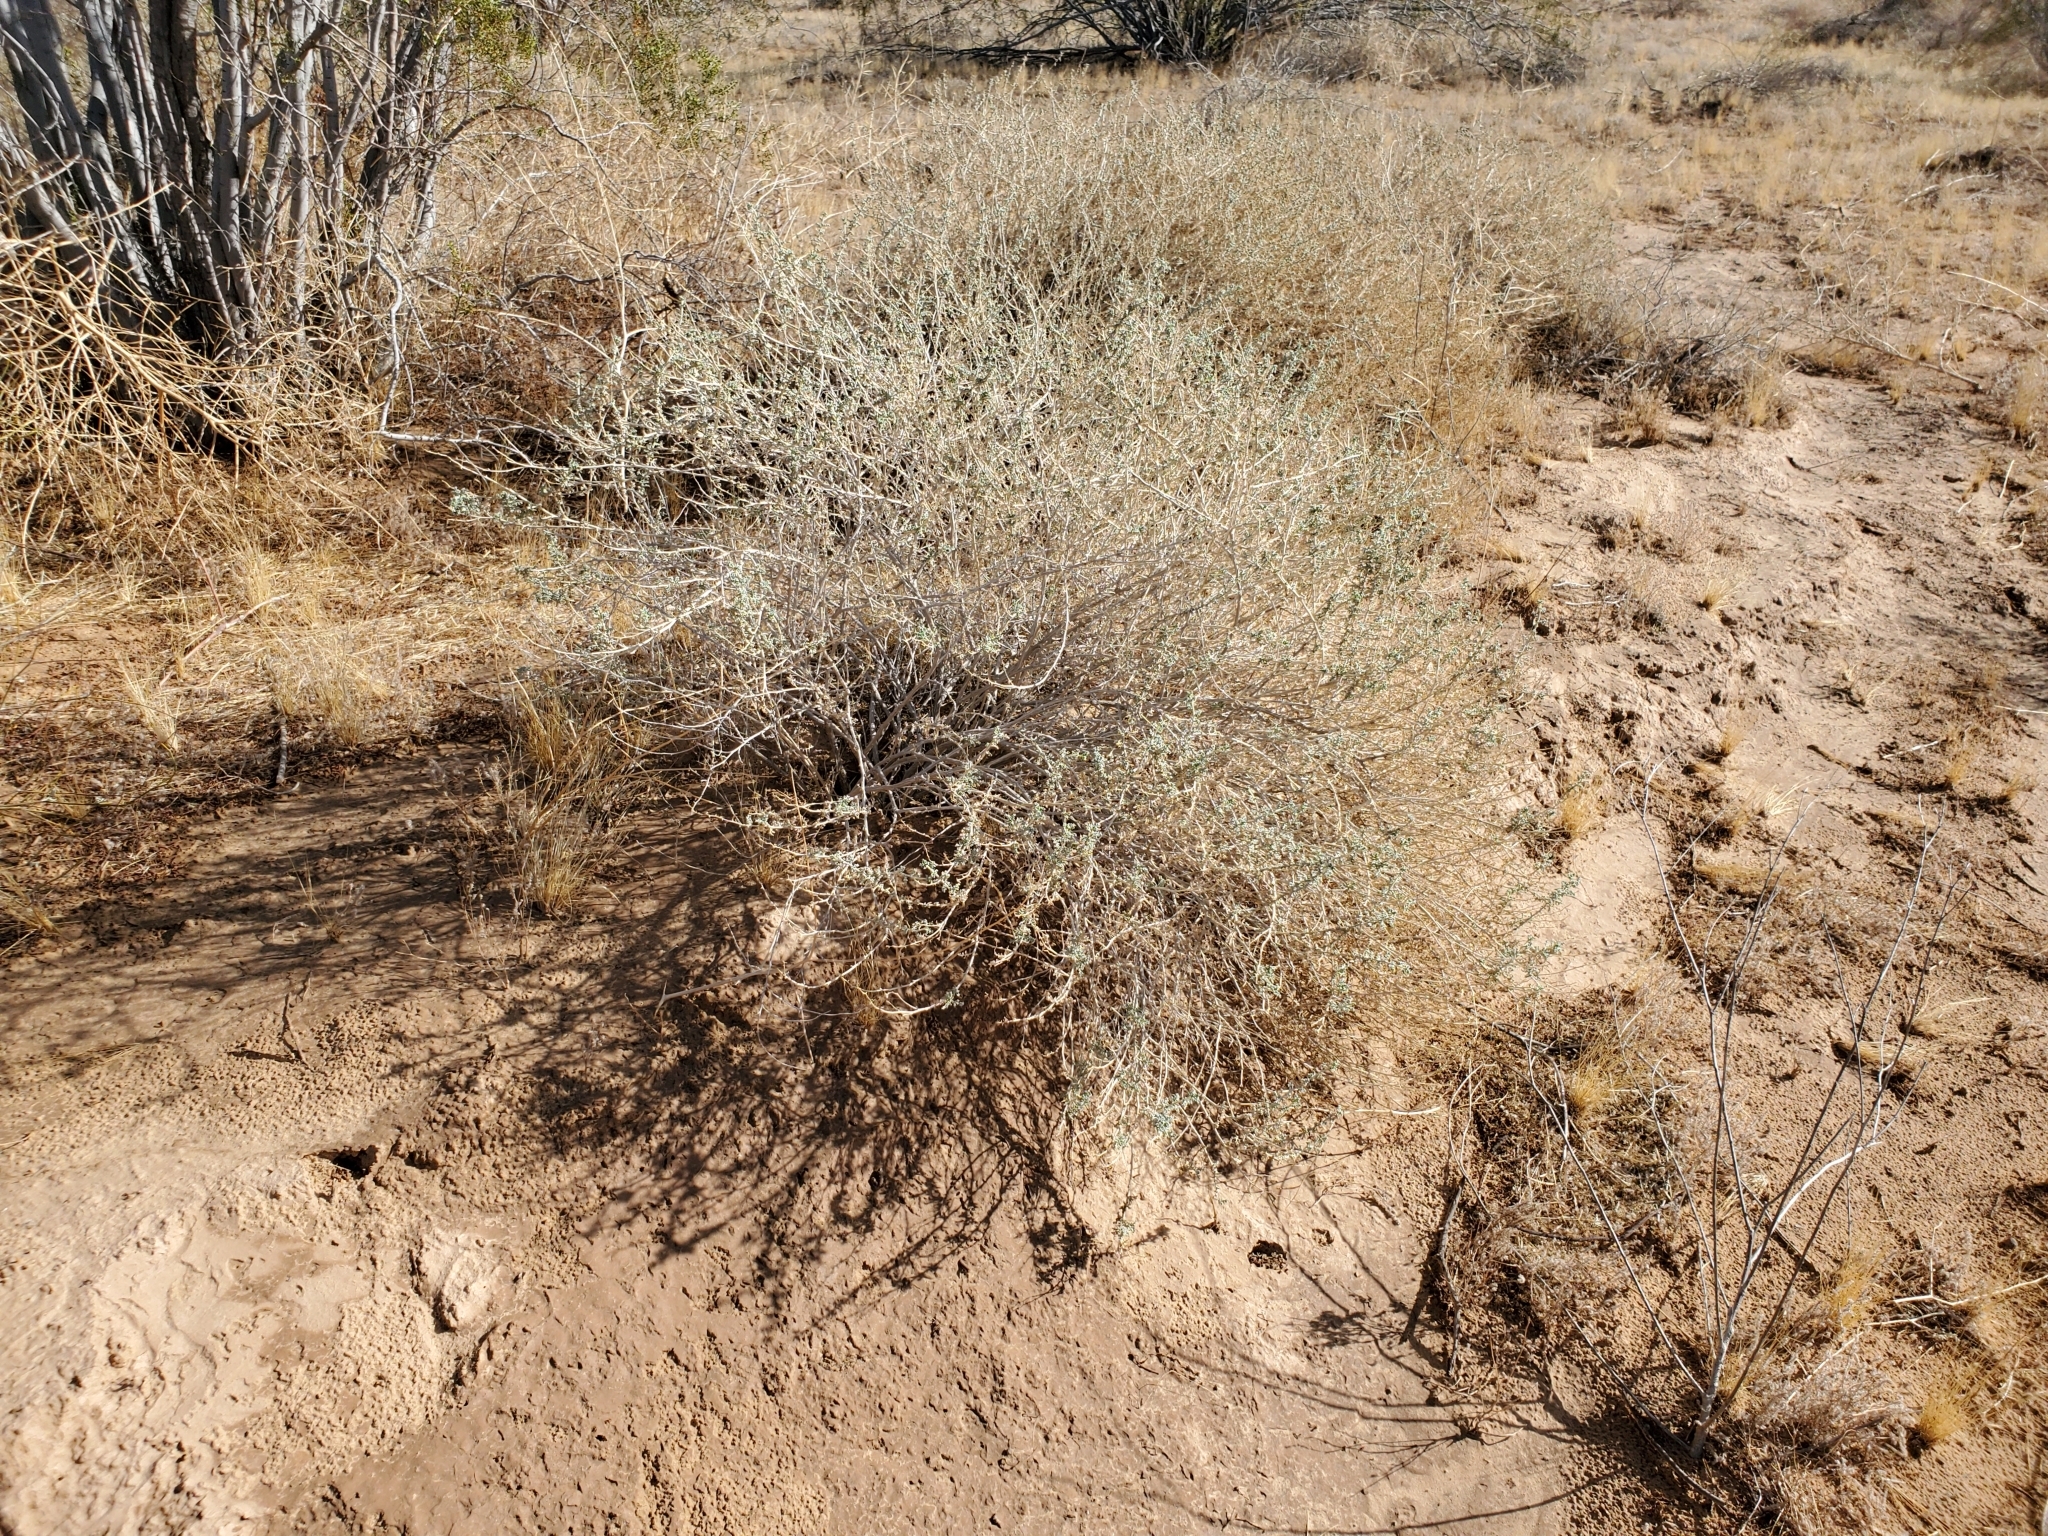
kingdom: Plantae
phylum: Tracheophyta
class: Magnoliopsida
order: Asterales
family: Asteraceae
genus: Ambrosia
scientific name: Ambrosia dumosa
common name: Bur-sage
